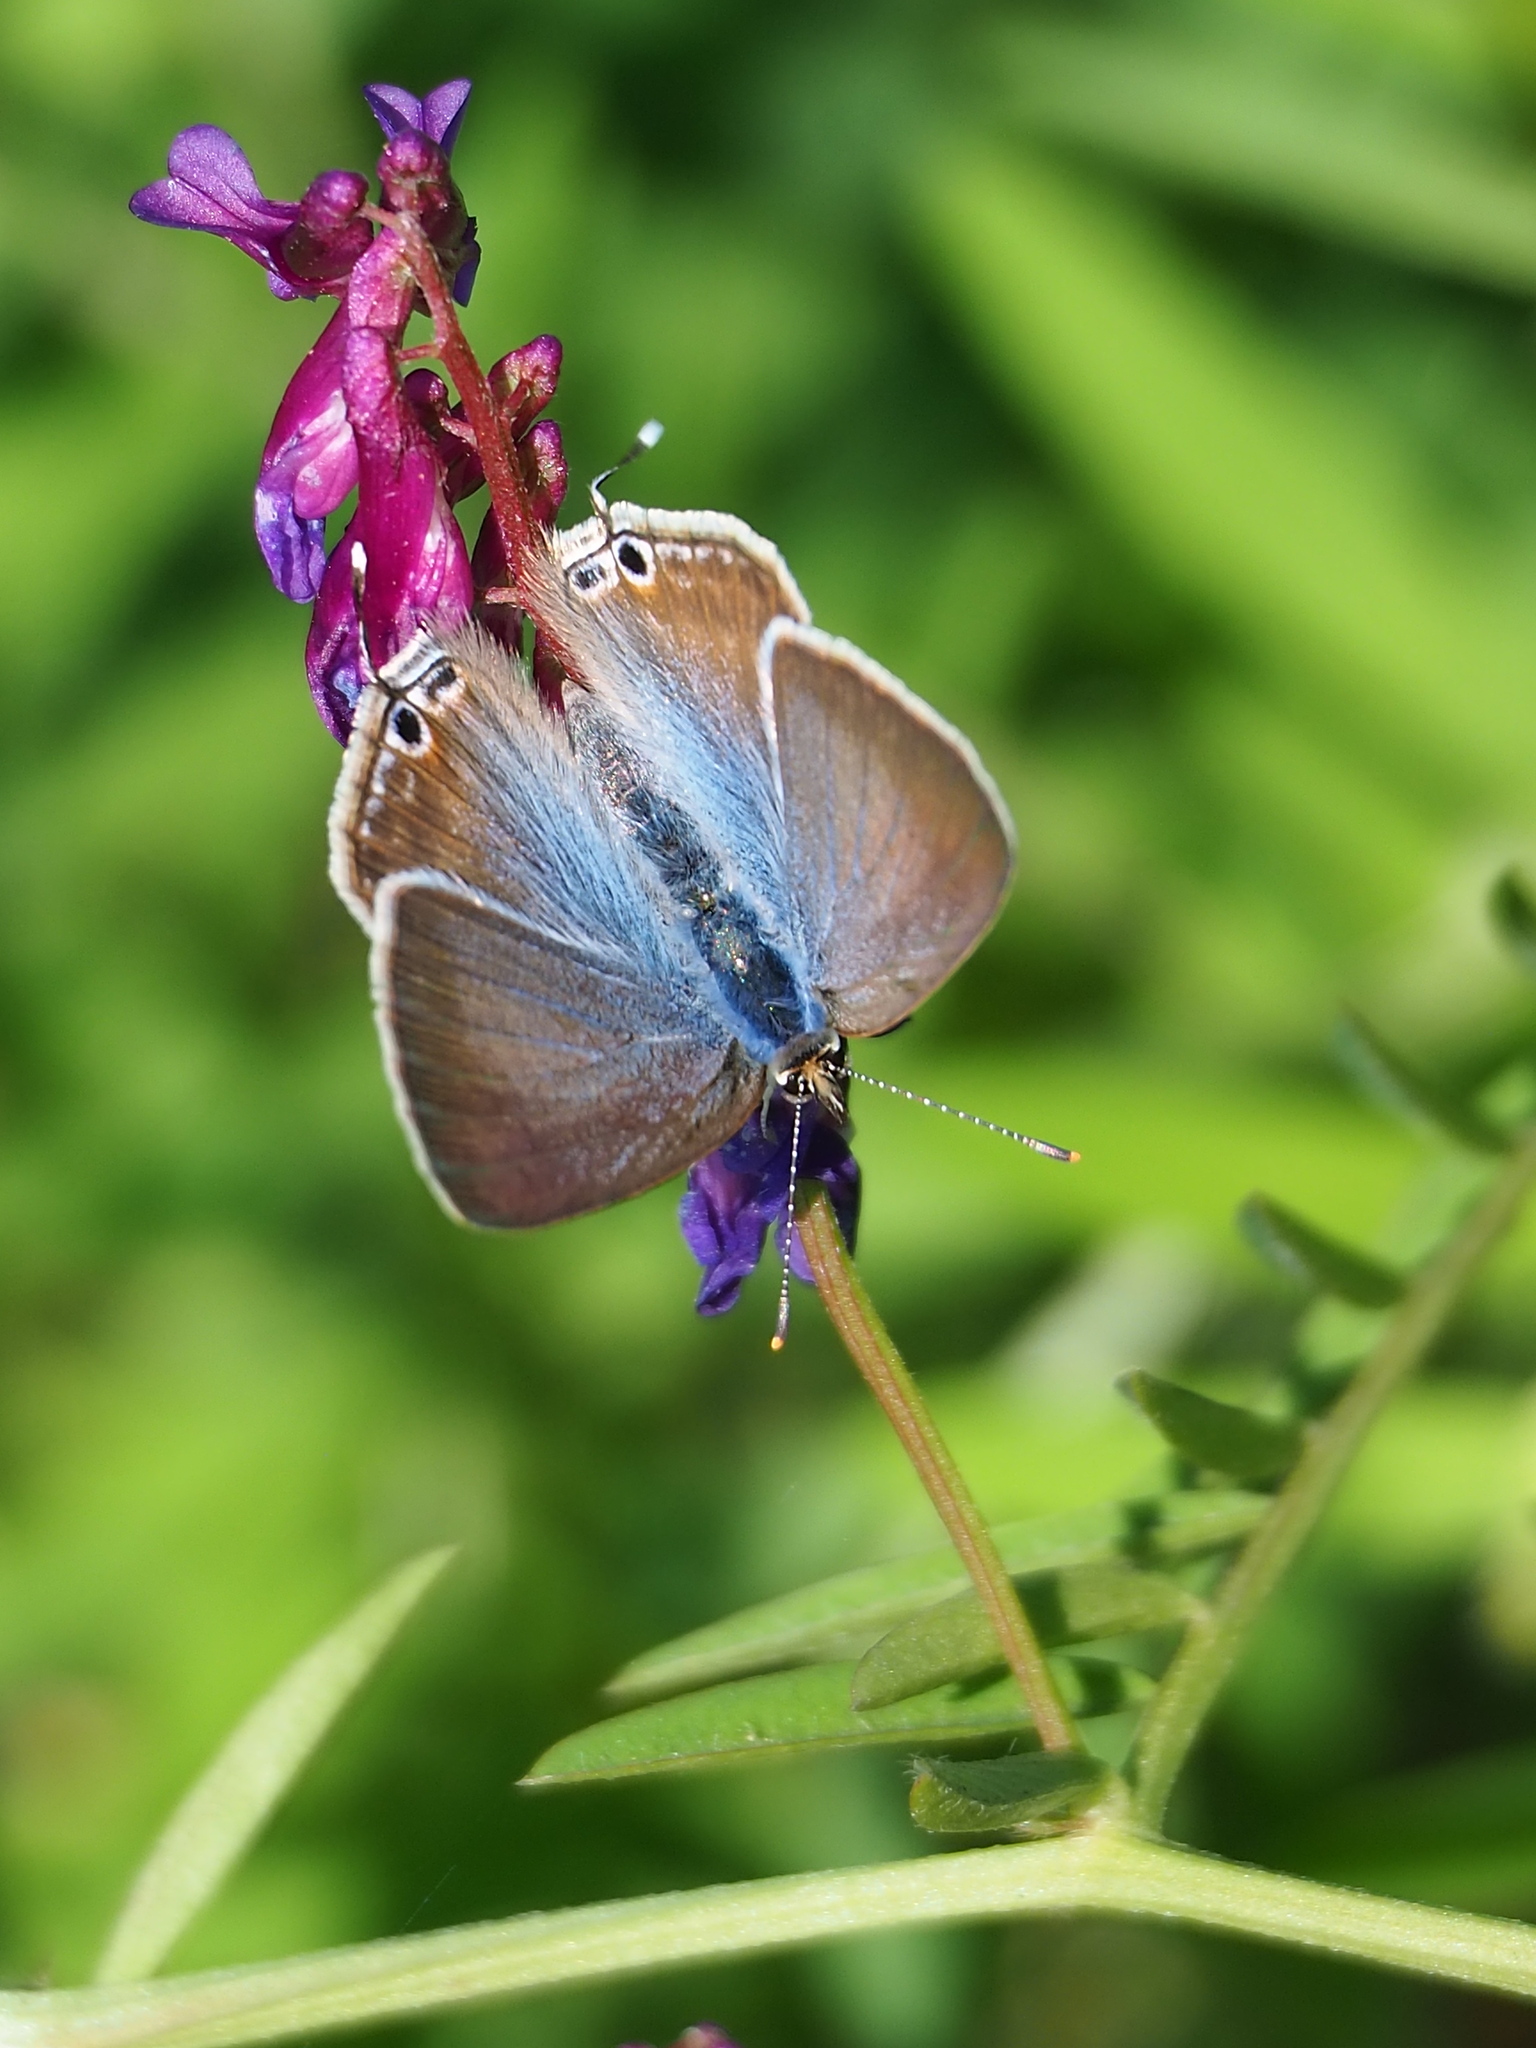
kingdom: Animalia
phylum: Arthropoda
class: Insecta
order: Lepidoptera
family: Lycaenidae
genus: Lampides
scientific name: Lampides boeticus
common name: Long-tailed blue
